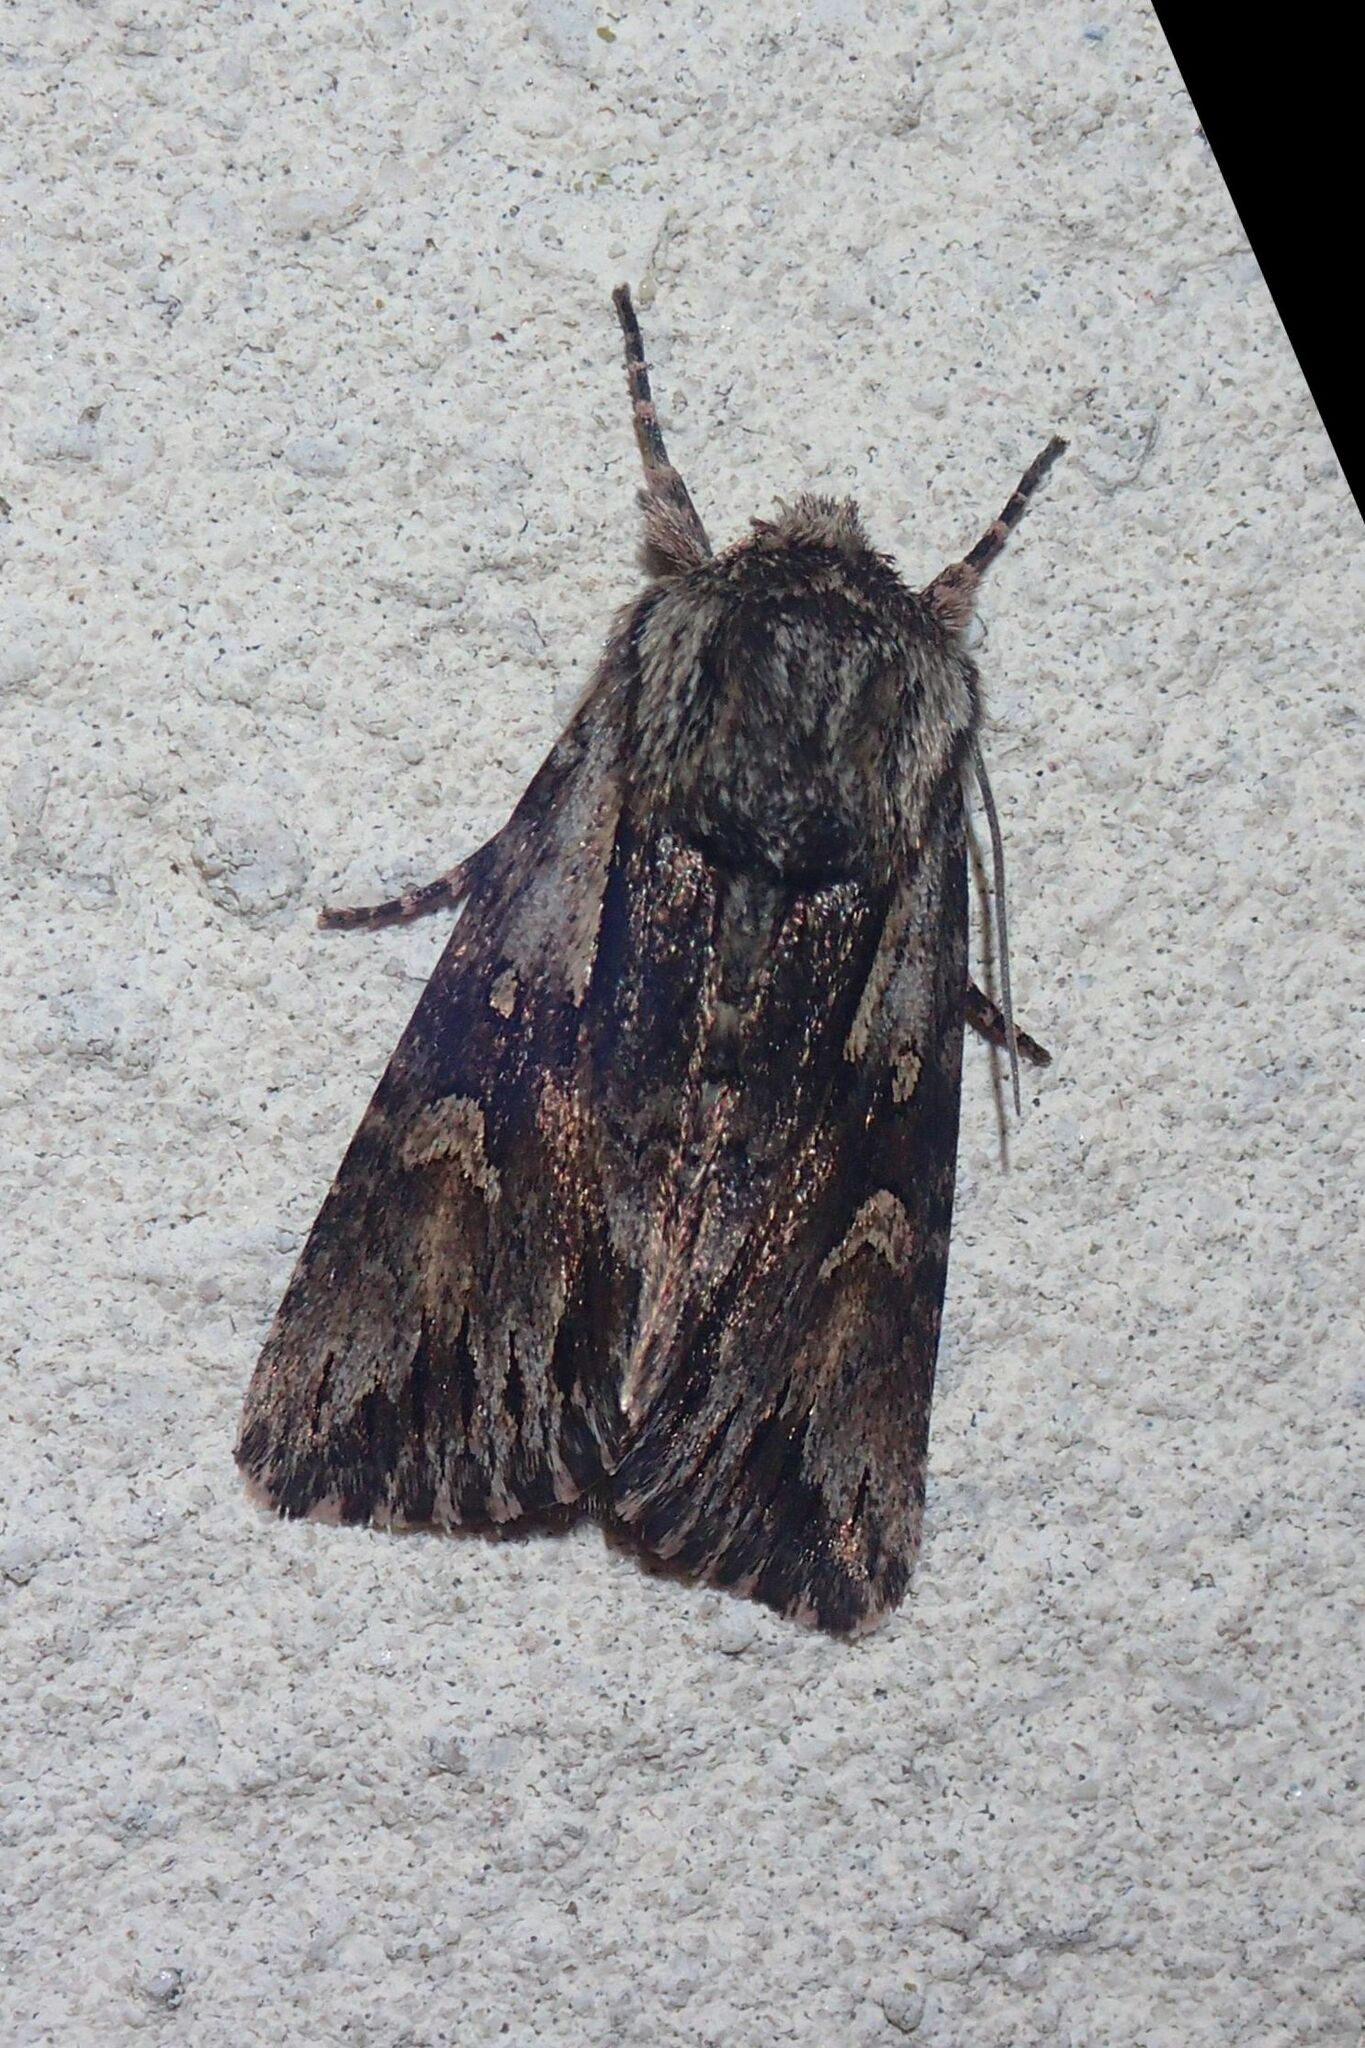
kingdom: Animalia
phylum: Arthropoda
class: Insecta
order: Lepidoptera
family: Noctuidae
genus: Chloantha
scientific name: Chloantha hyperici
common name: Pale-shouldered cloud
